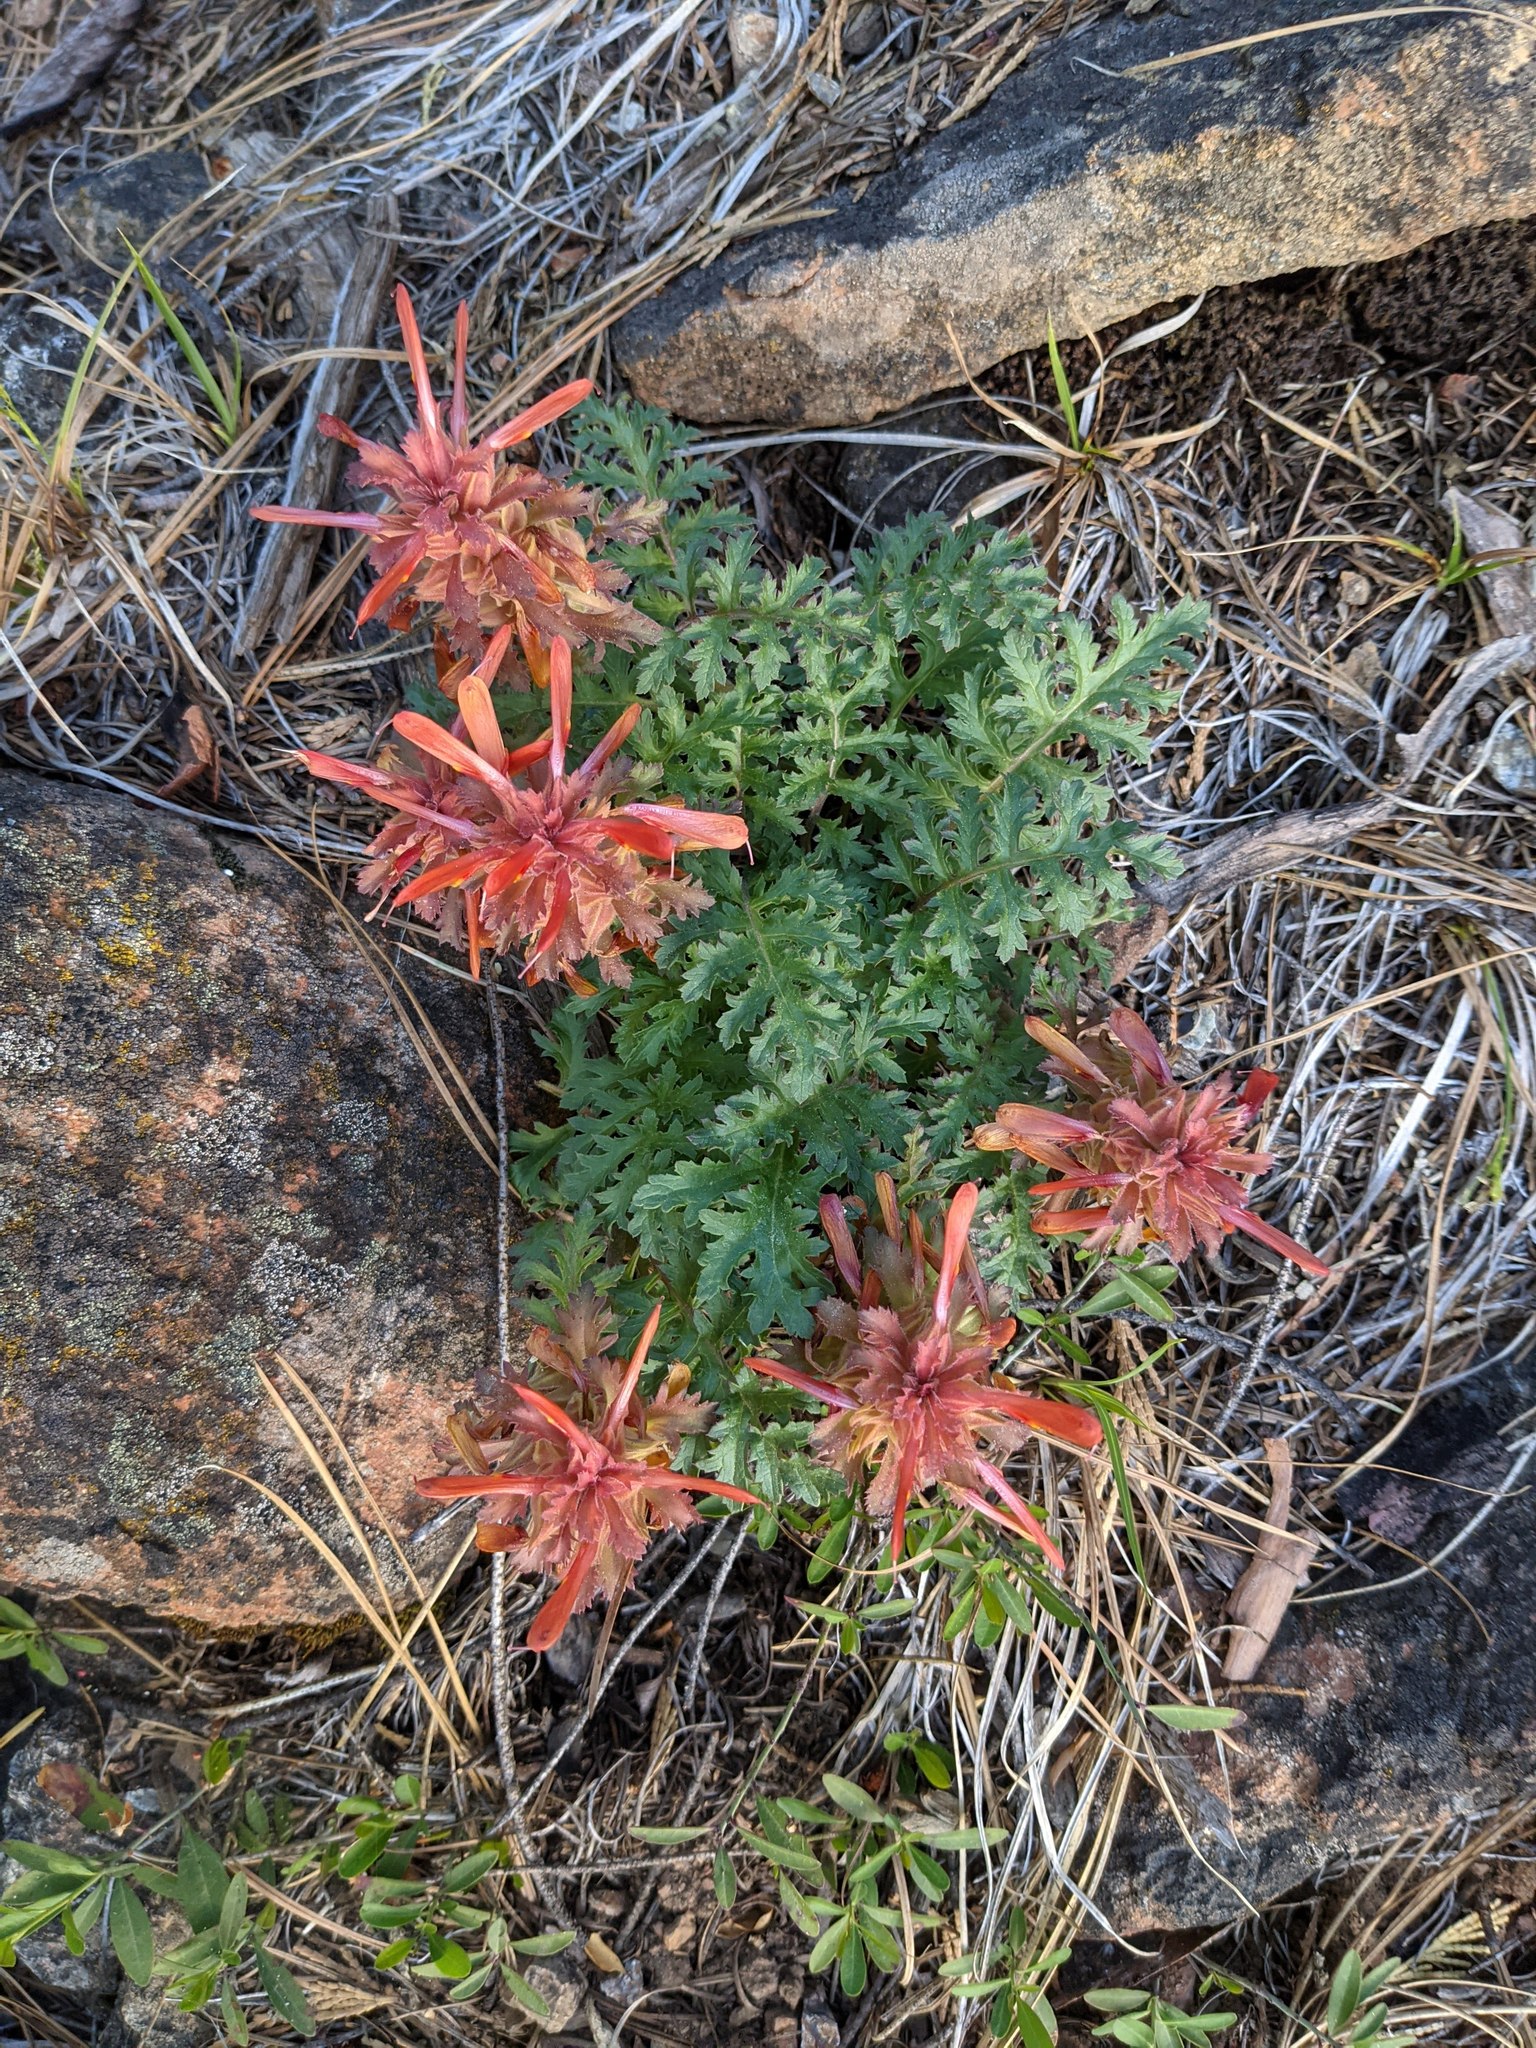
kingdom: Plantae
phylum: Tracheophyta
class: Magnoliopsida
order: Lamiales
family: Orobanchaceae
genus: Pedicularis
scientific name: Pedicularis densiflora
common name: Indian warrior
